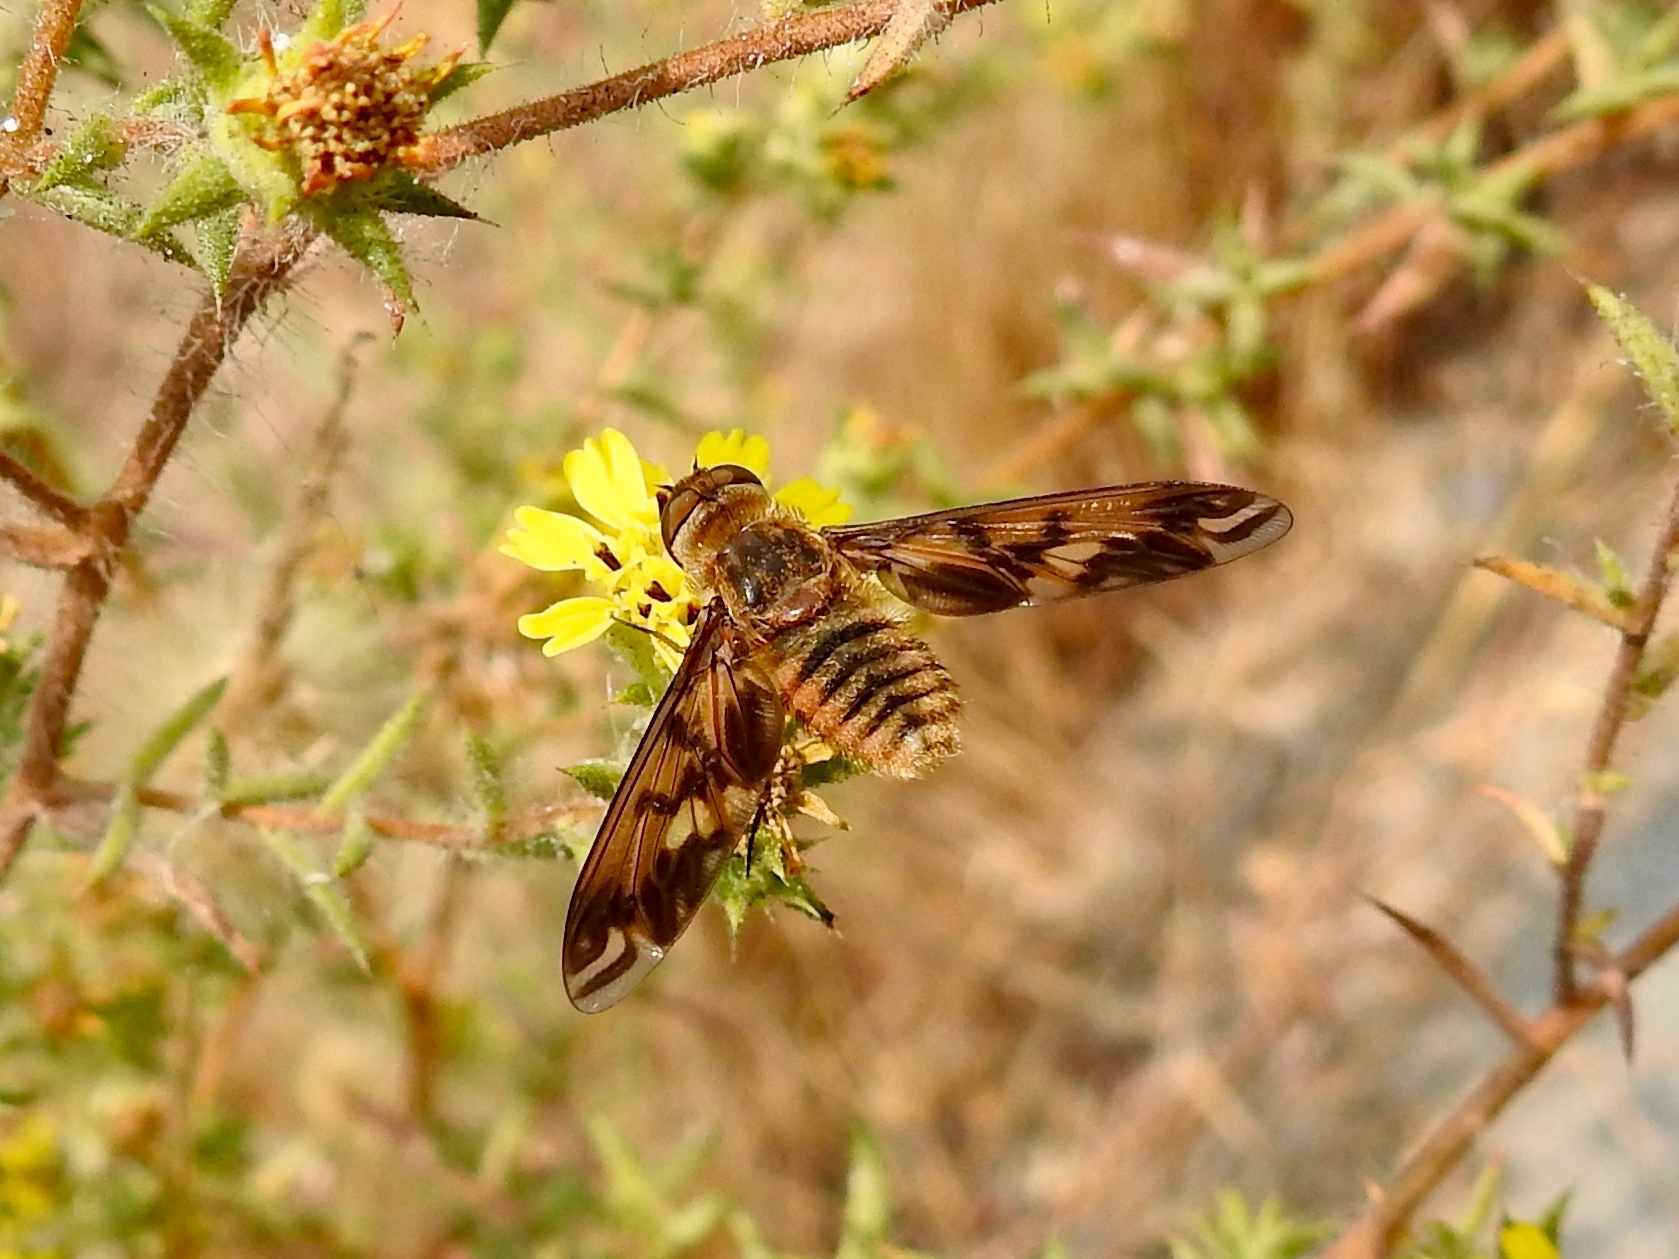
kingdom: Animalia
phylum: Arthropoda
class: Insecta
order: Diptera
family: Bombyliidae
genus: Poecilanthrax
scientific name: Poecilanthrax arethusa
